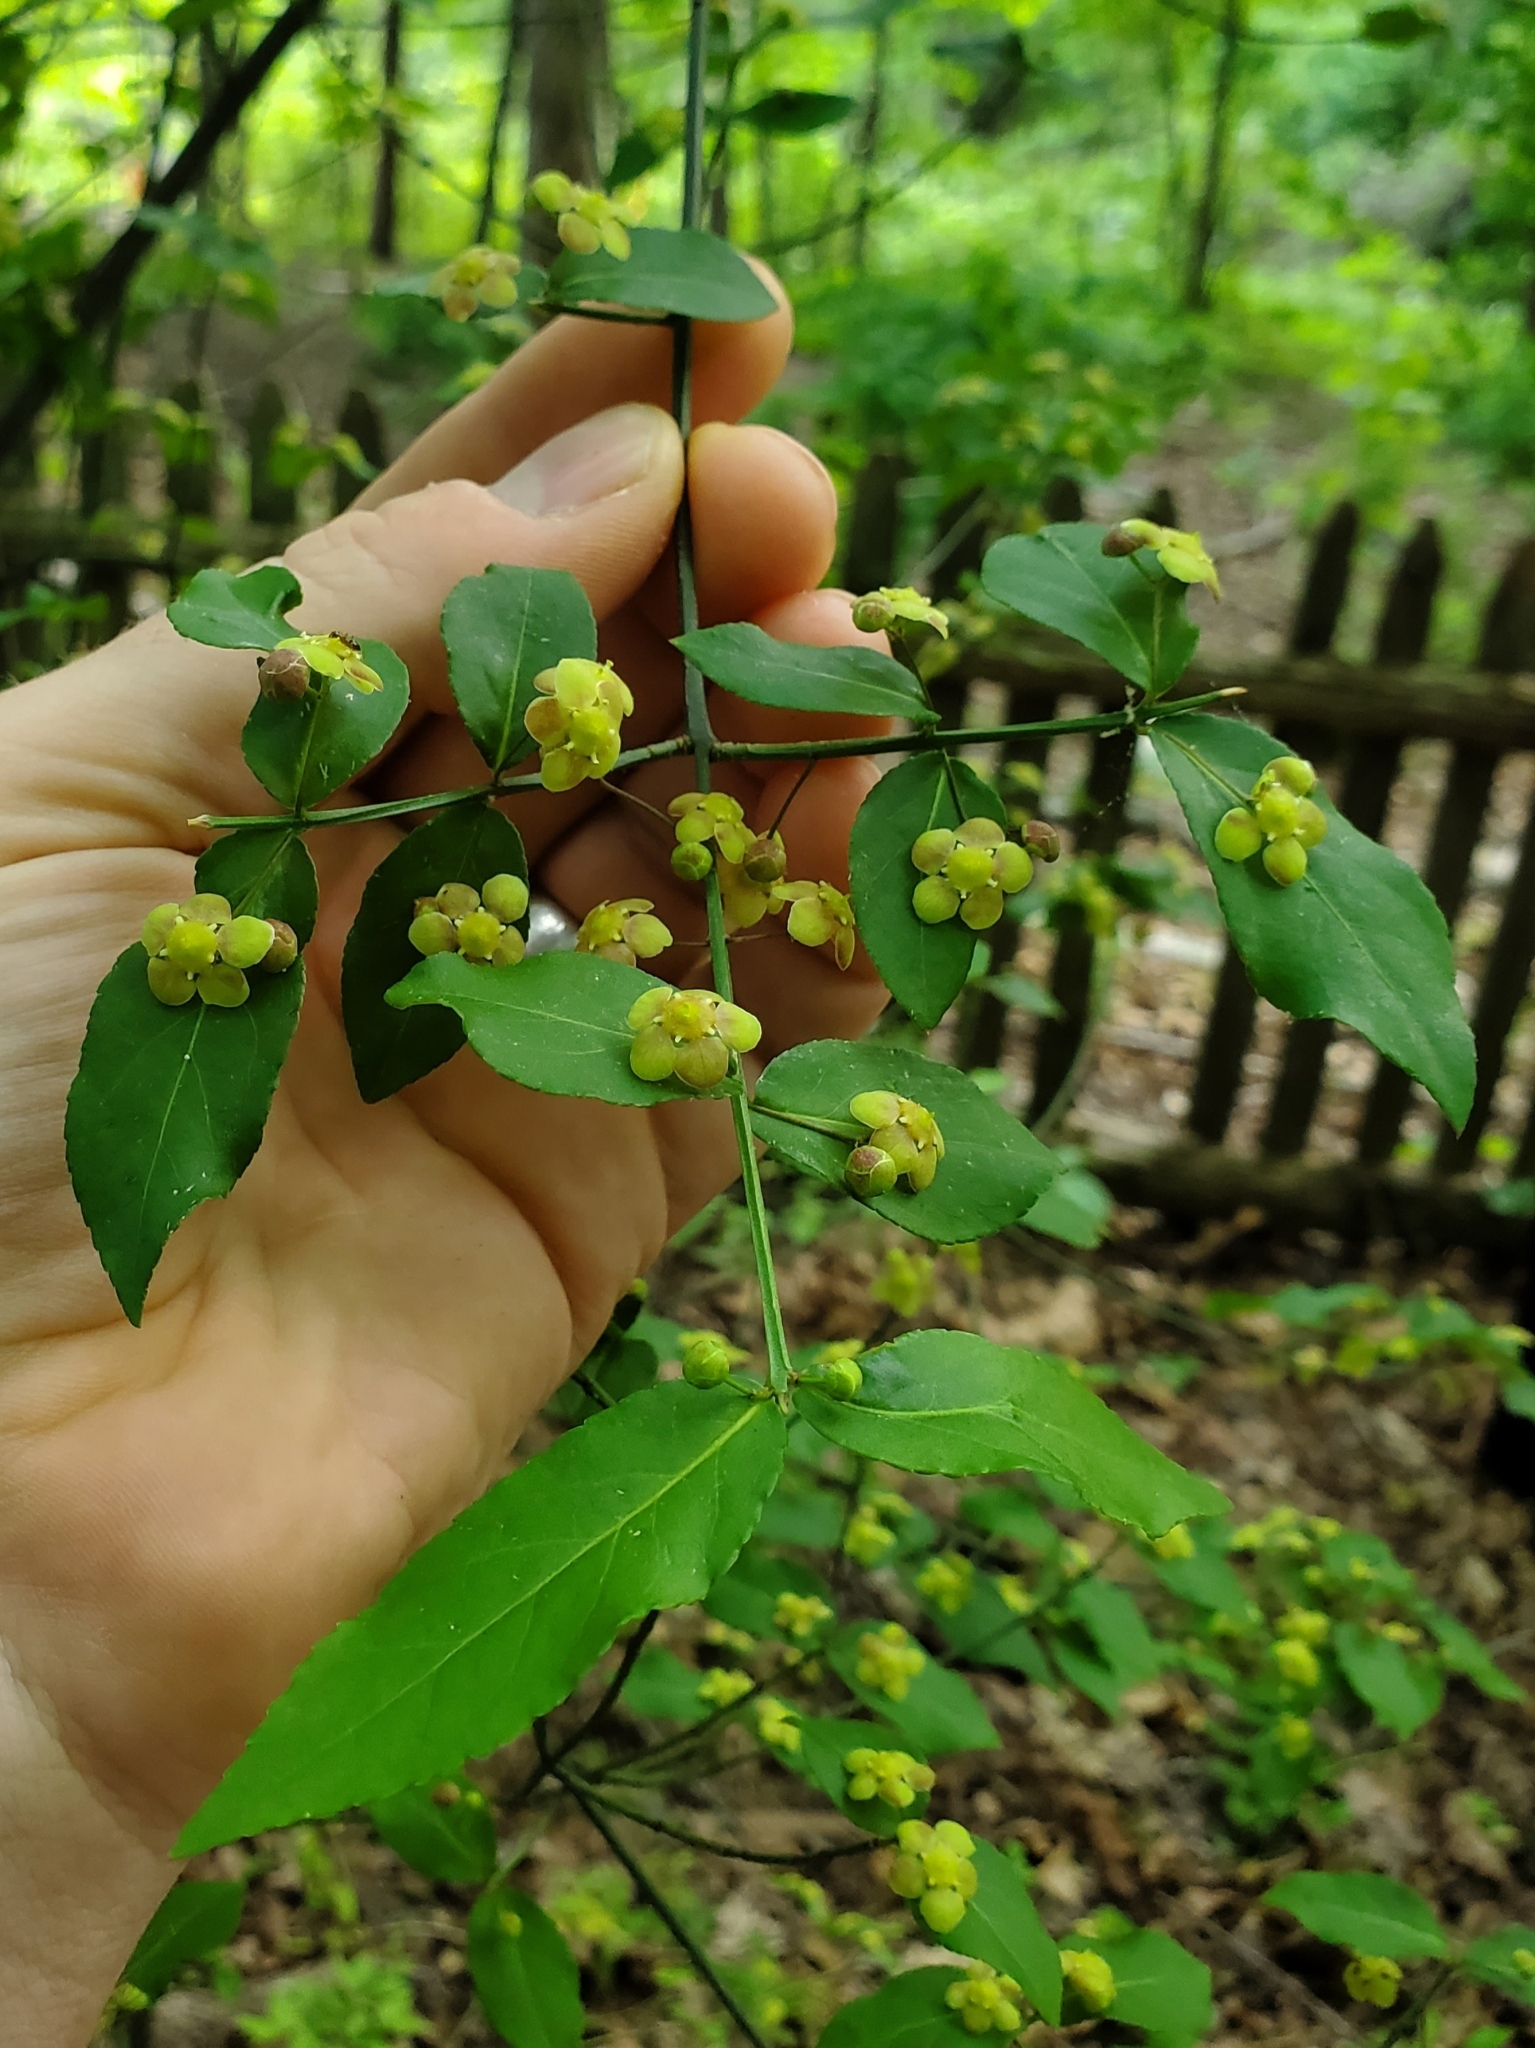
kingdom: Plantae
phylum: Tracheophyta
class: Magnoliopsida
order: Celastrales
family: Celastraceae
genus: Euonymus
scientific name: Euonymus americanus
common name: Bursting-heart
